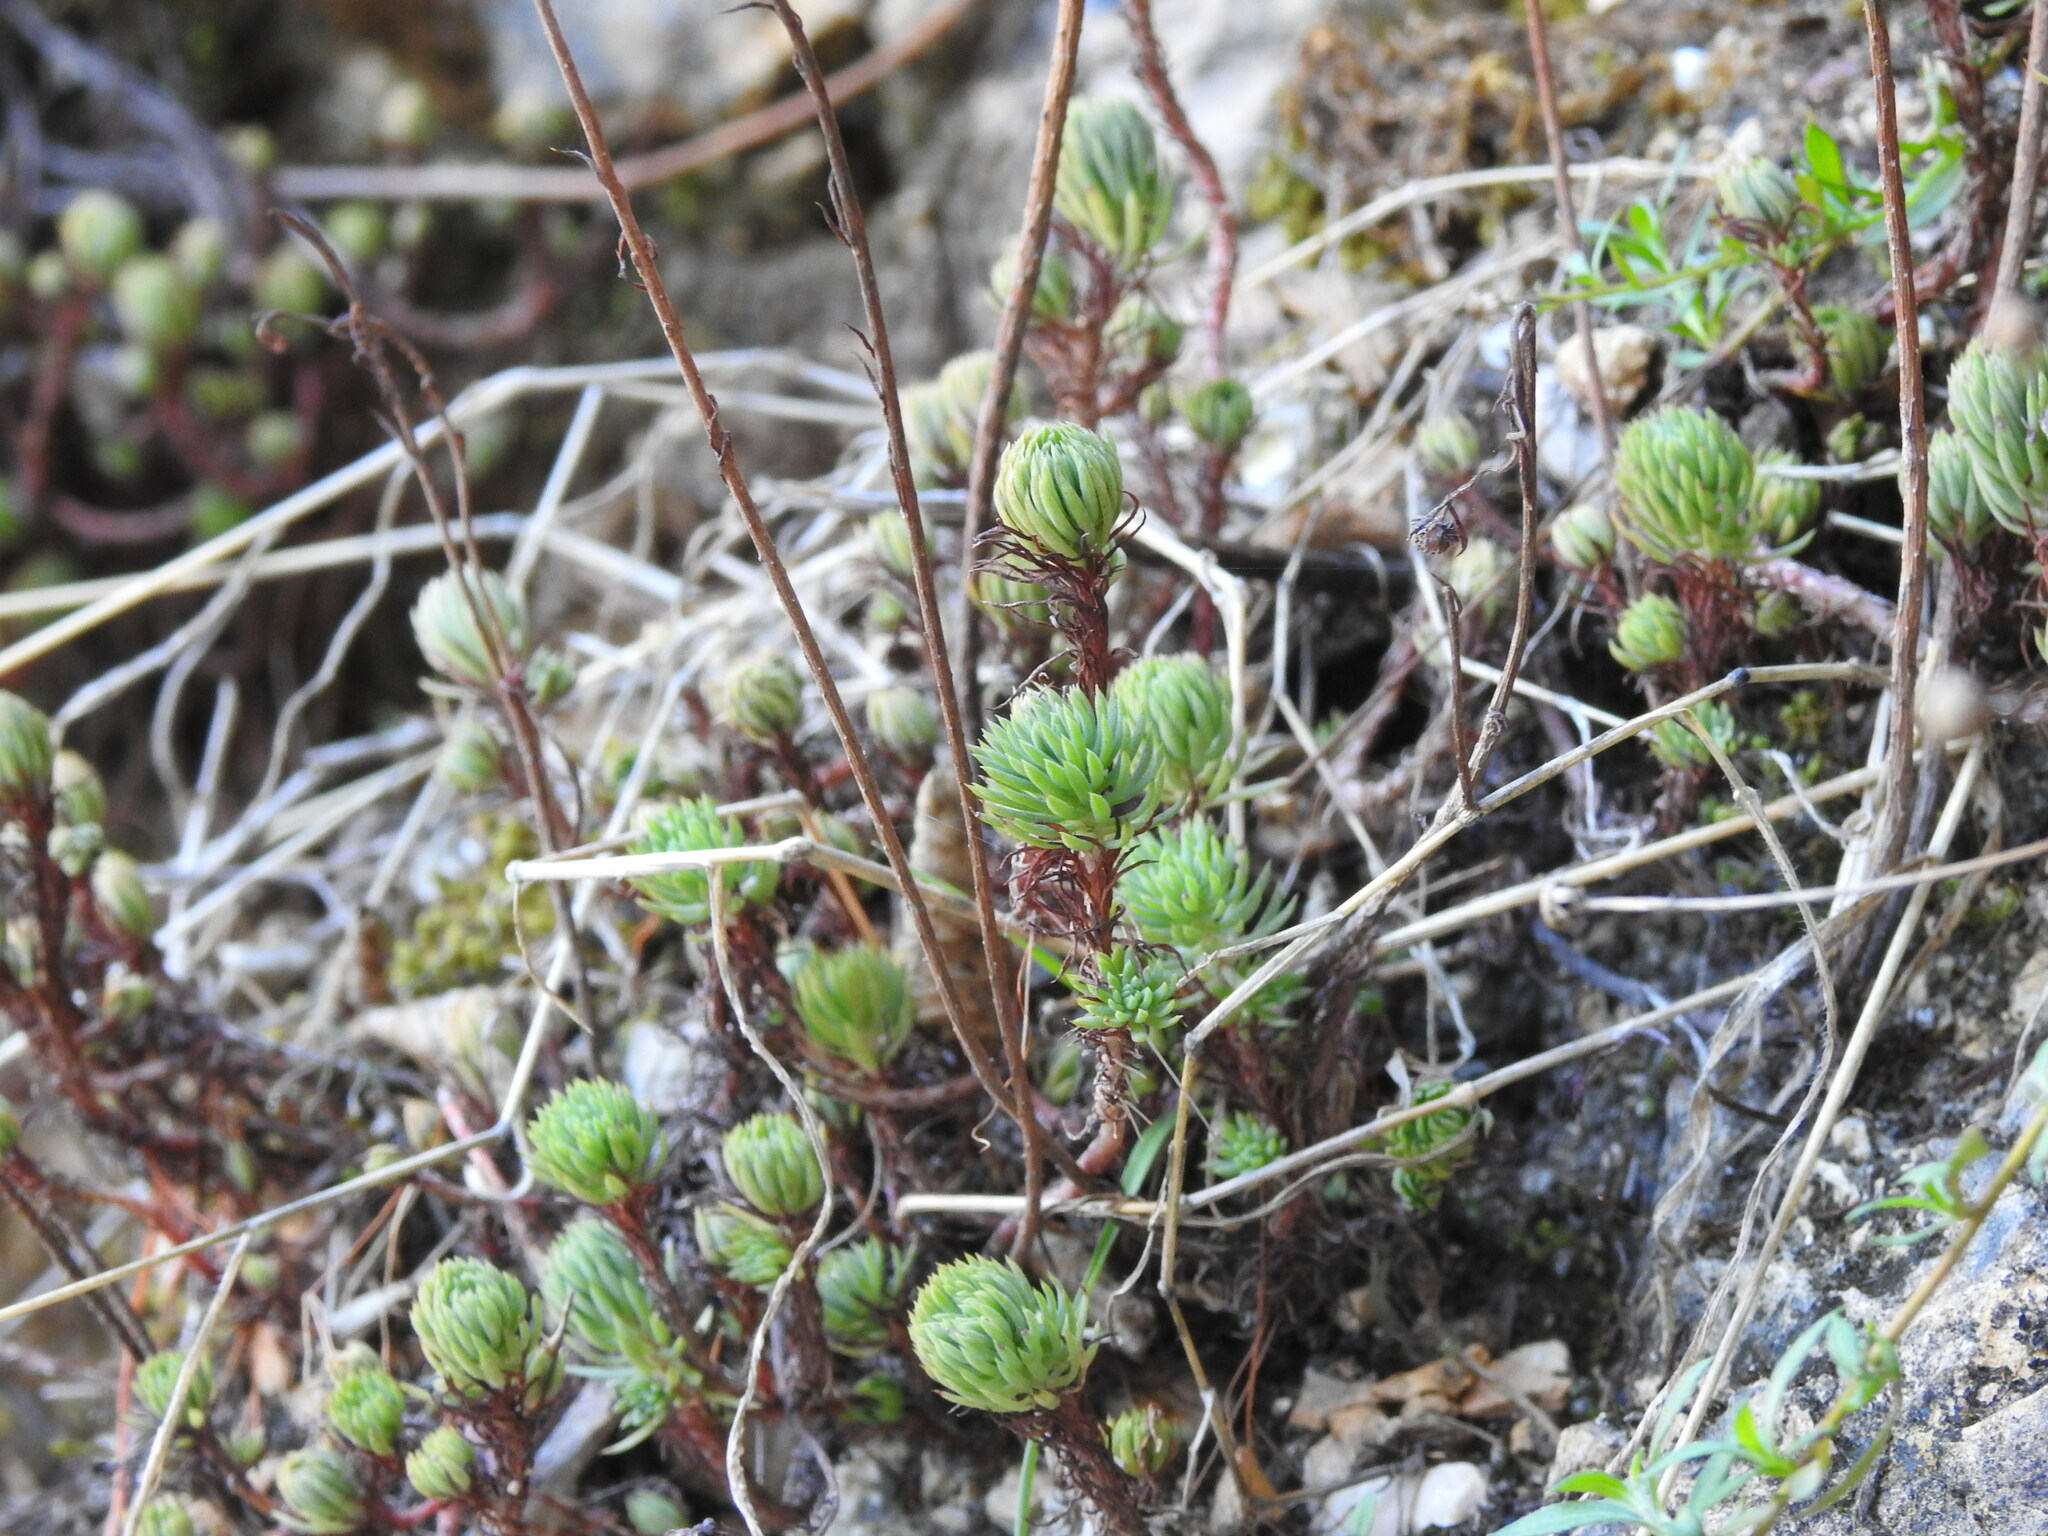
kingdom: Plantae
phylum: Tracheophyta
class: Magnoliopsida
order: Saxifragales
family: Crassulaceae
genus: Petrosedum
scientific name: Petrosedum forsterianum
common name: Forster's stonecrop
